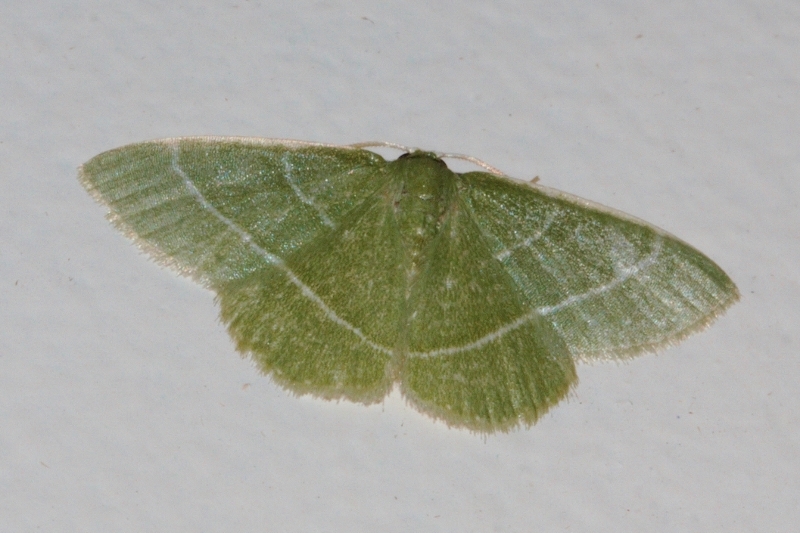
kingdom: Animalia
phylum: Arthropoda
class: Insecta
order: Lepidoptera
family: Geometridae
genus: Microloxia
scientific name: Microloxia ruficornis
